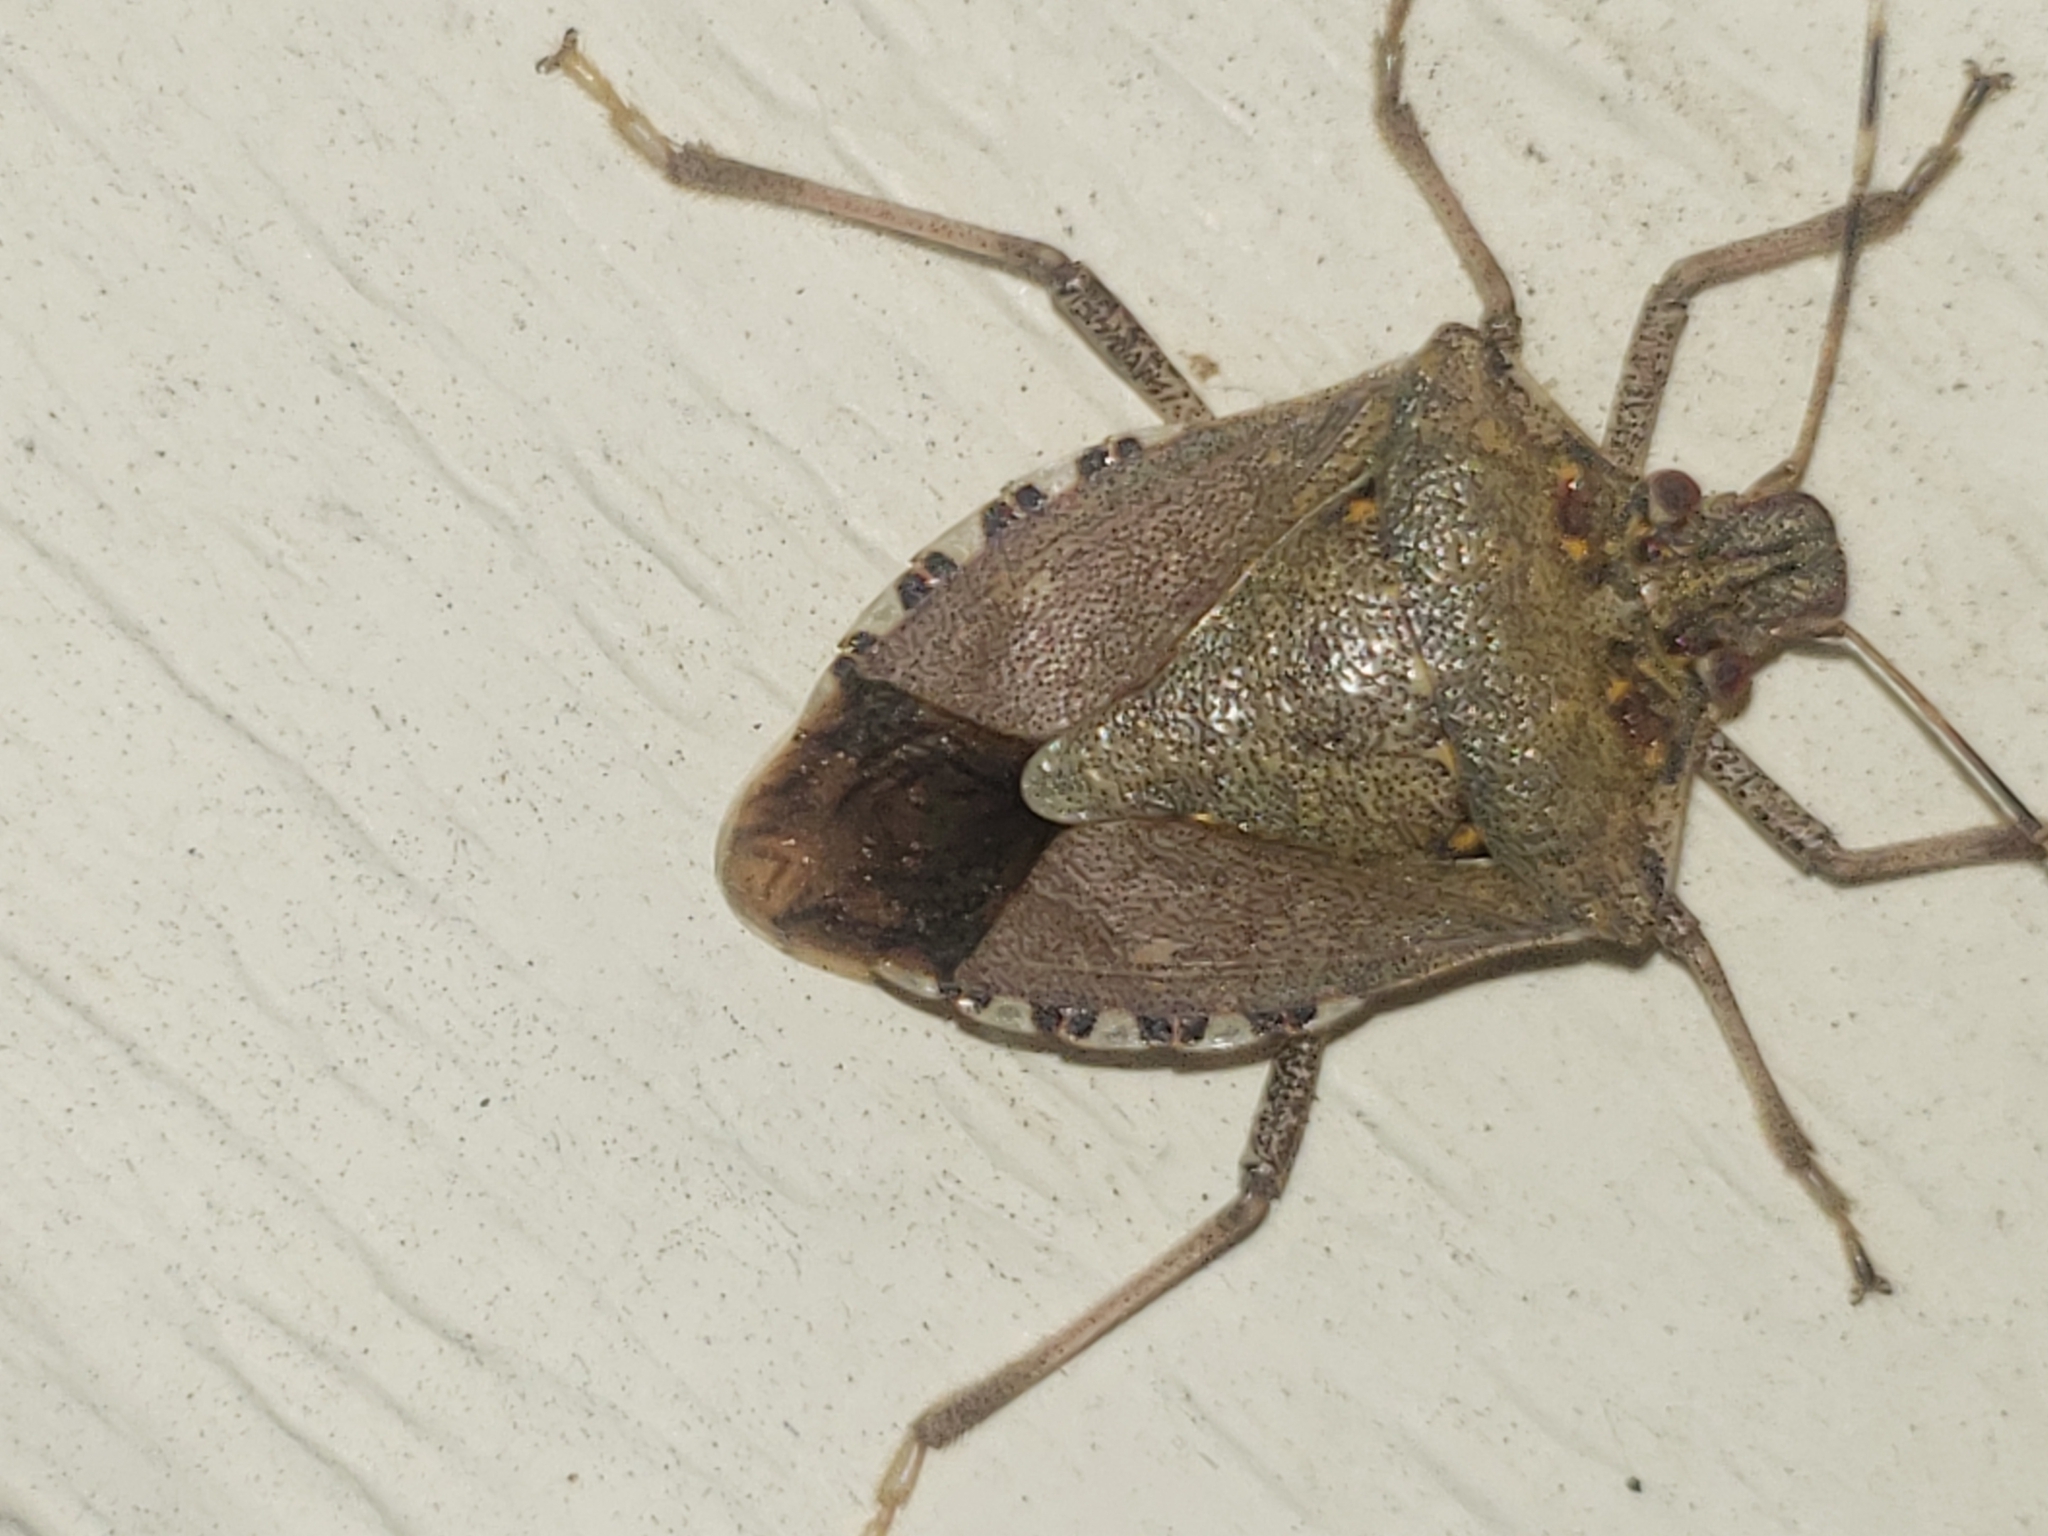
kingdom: Animalia
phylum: Arthropoda
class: Insecta
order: Hemiptera
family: Pentatomidae
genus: Halyomorpha
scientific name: Halyomorpha halys
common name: Brown marmorated stink bug
